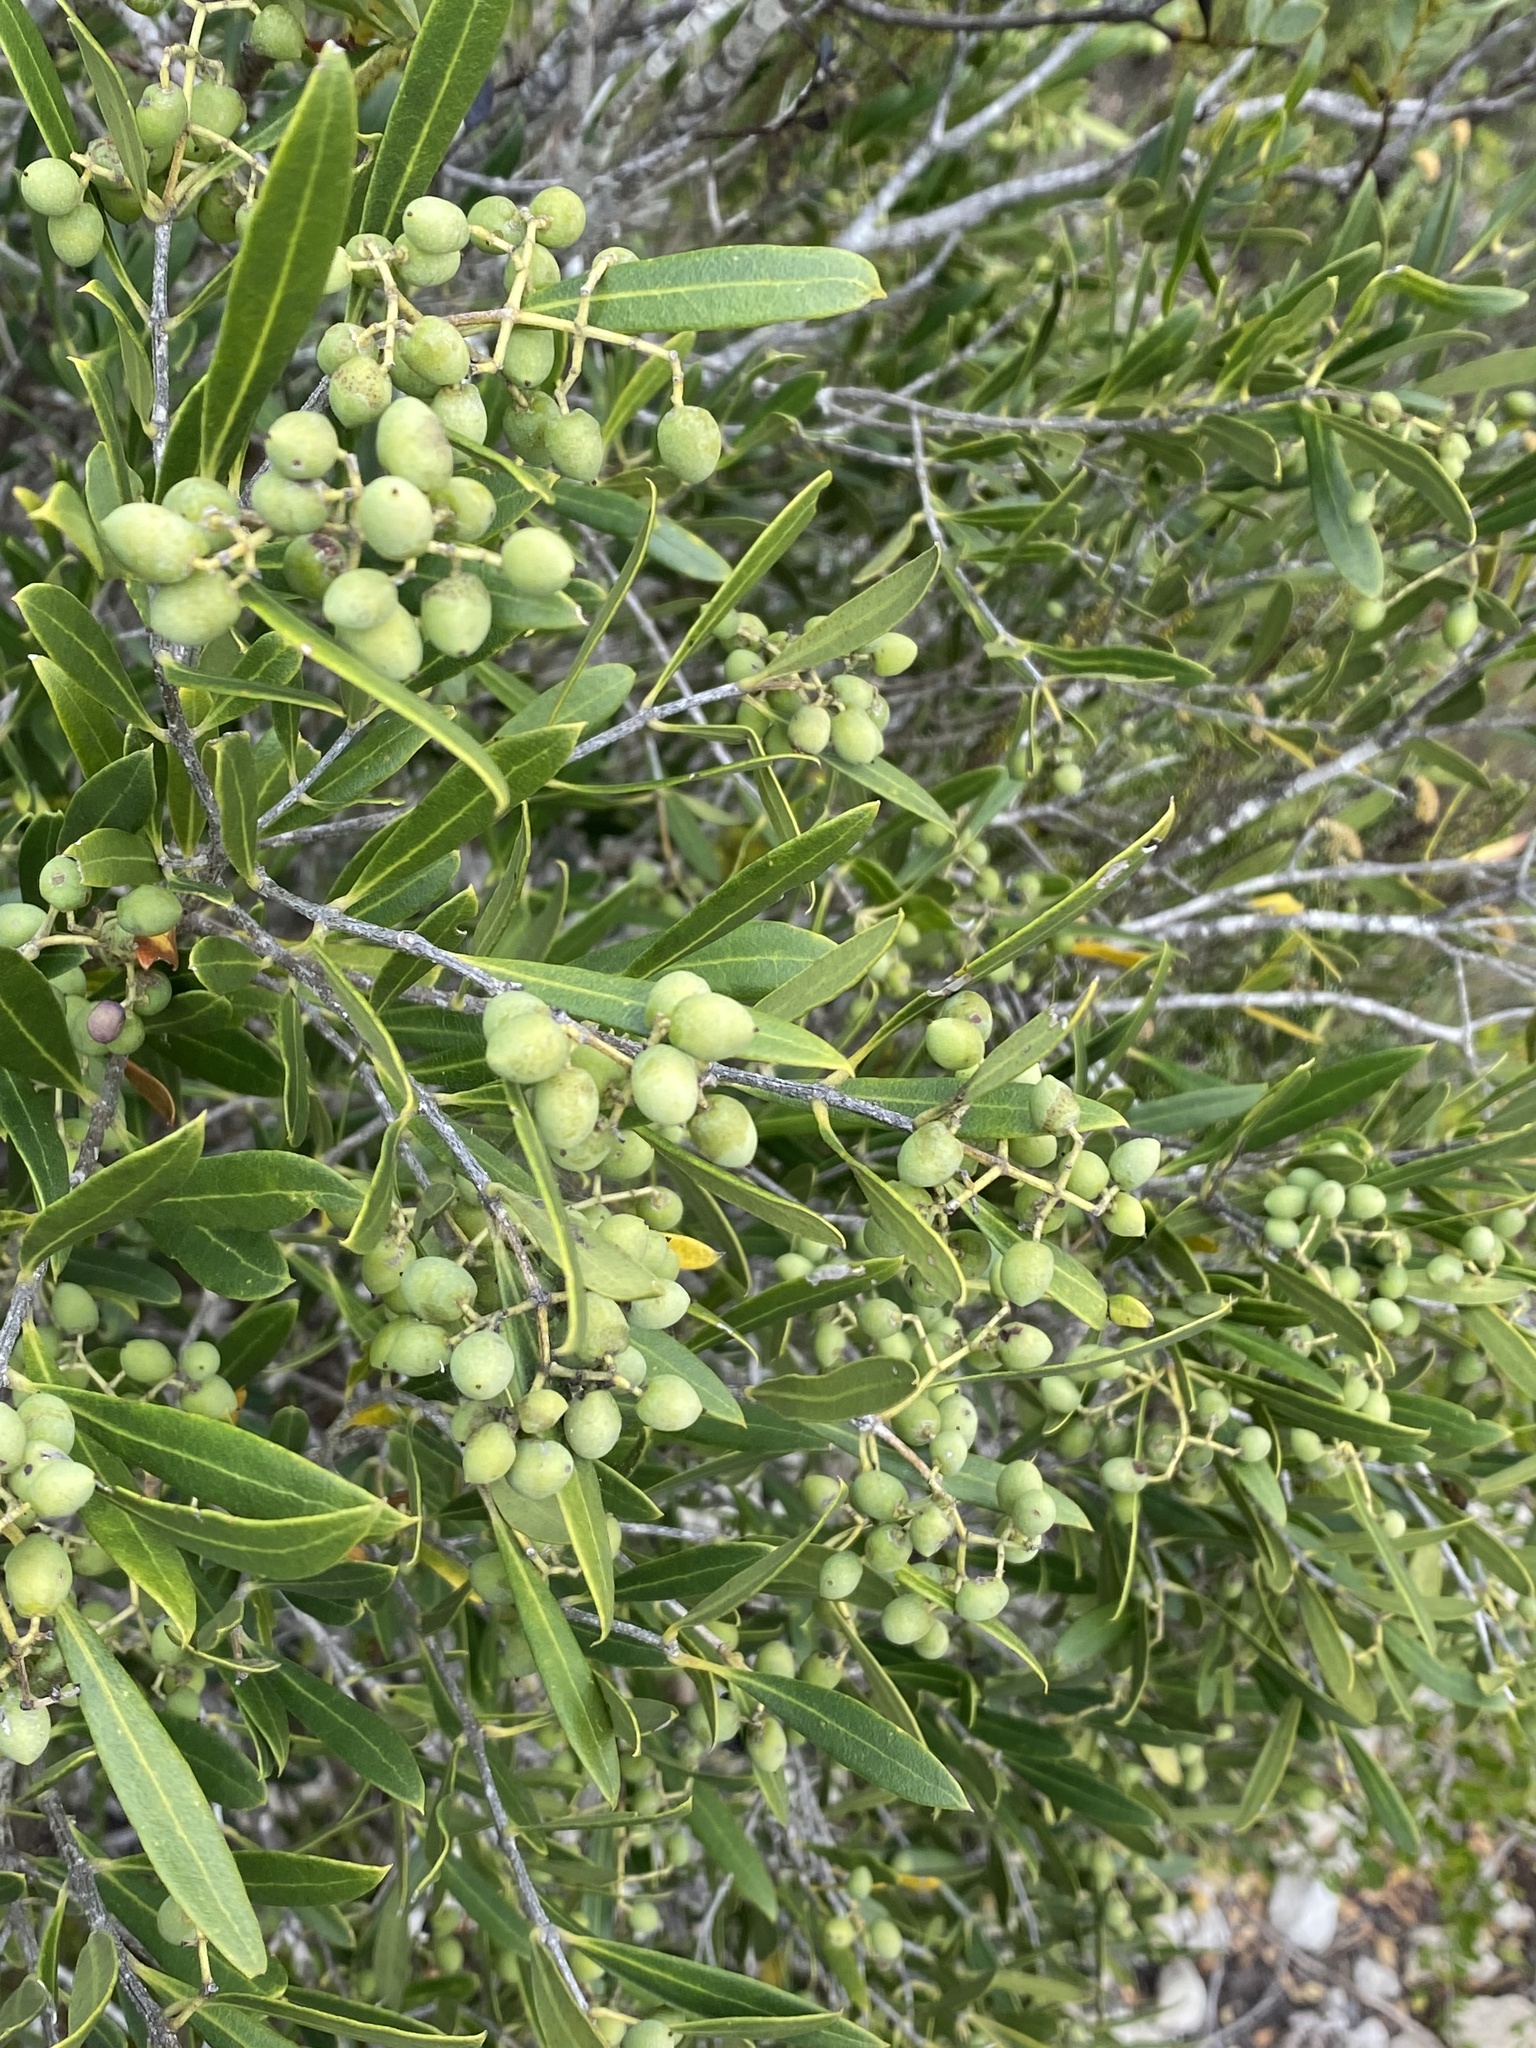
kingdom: Plantae
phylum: Tracheophyta
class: Magnoliopsida
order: Lamiales
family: Oleaceae
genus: Olea
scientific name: Olea exasperata
